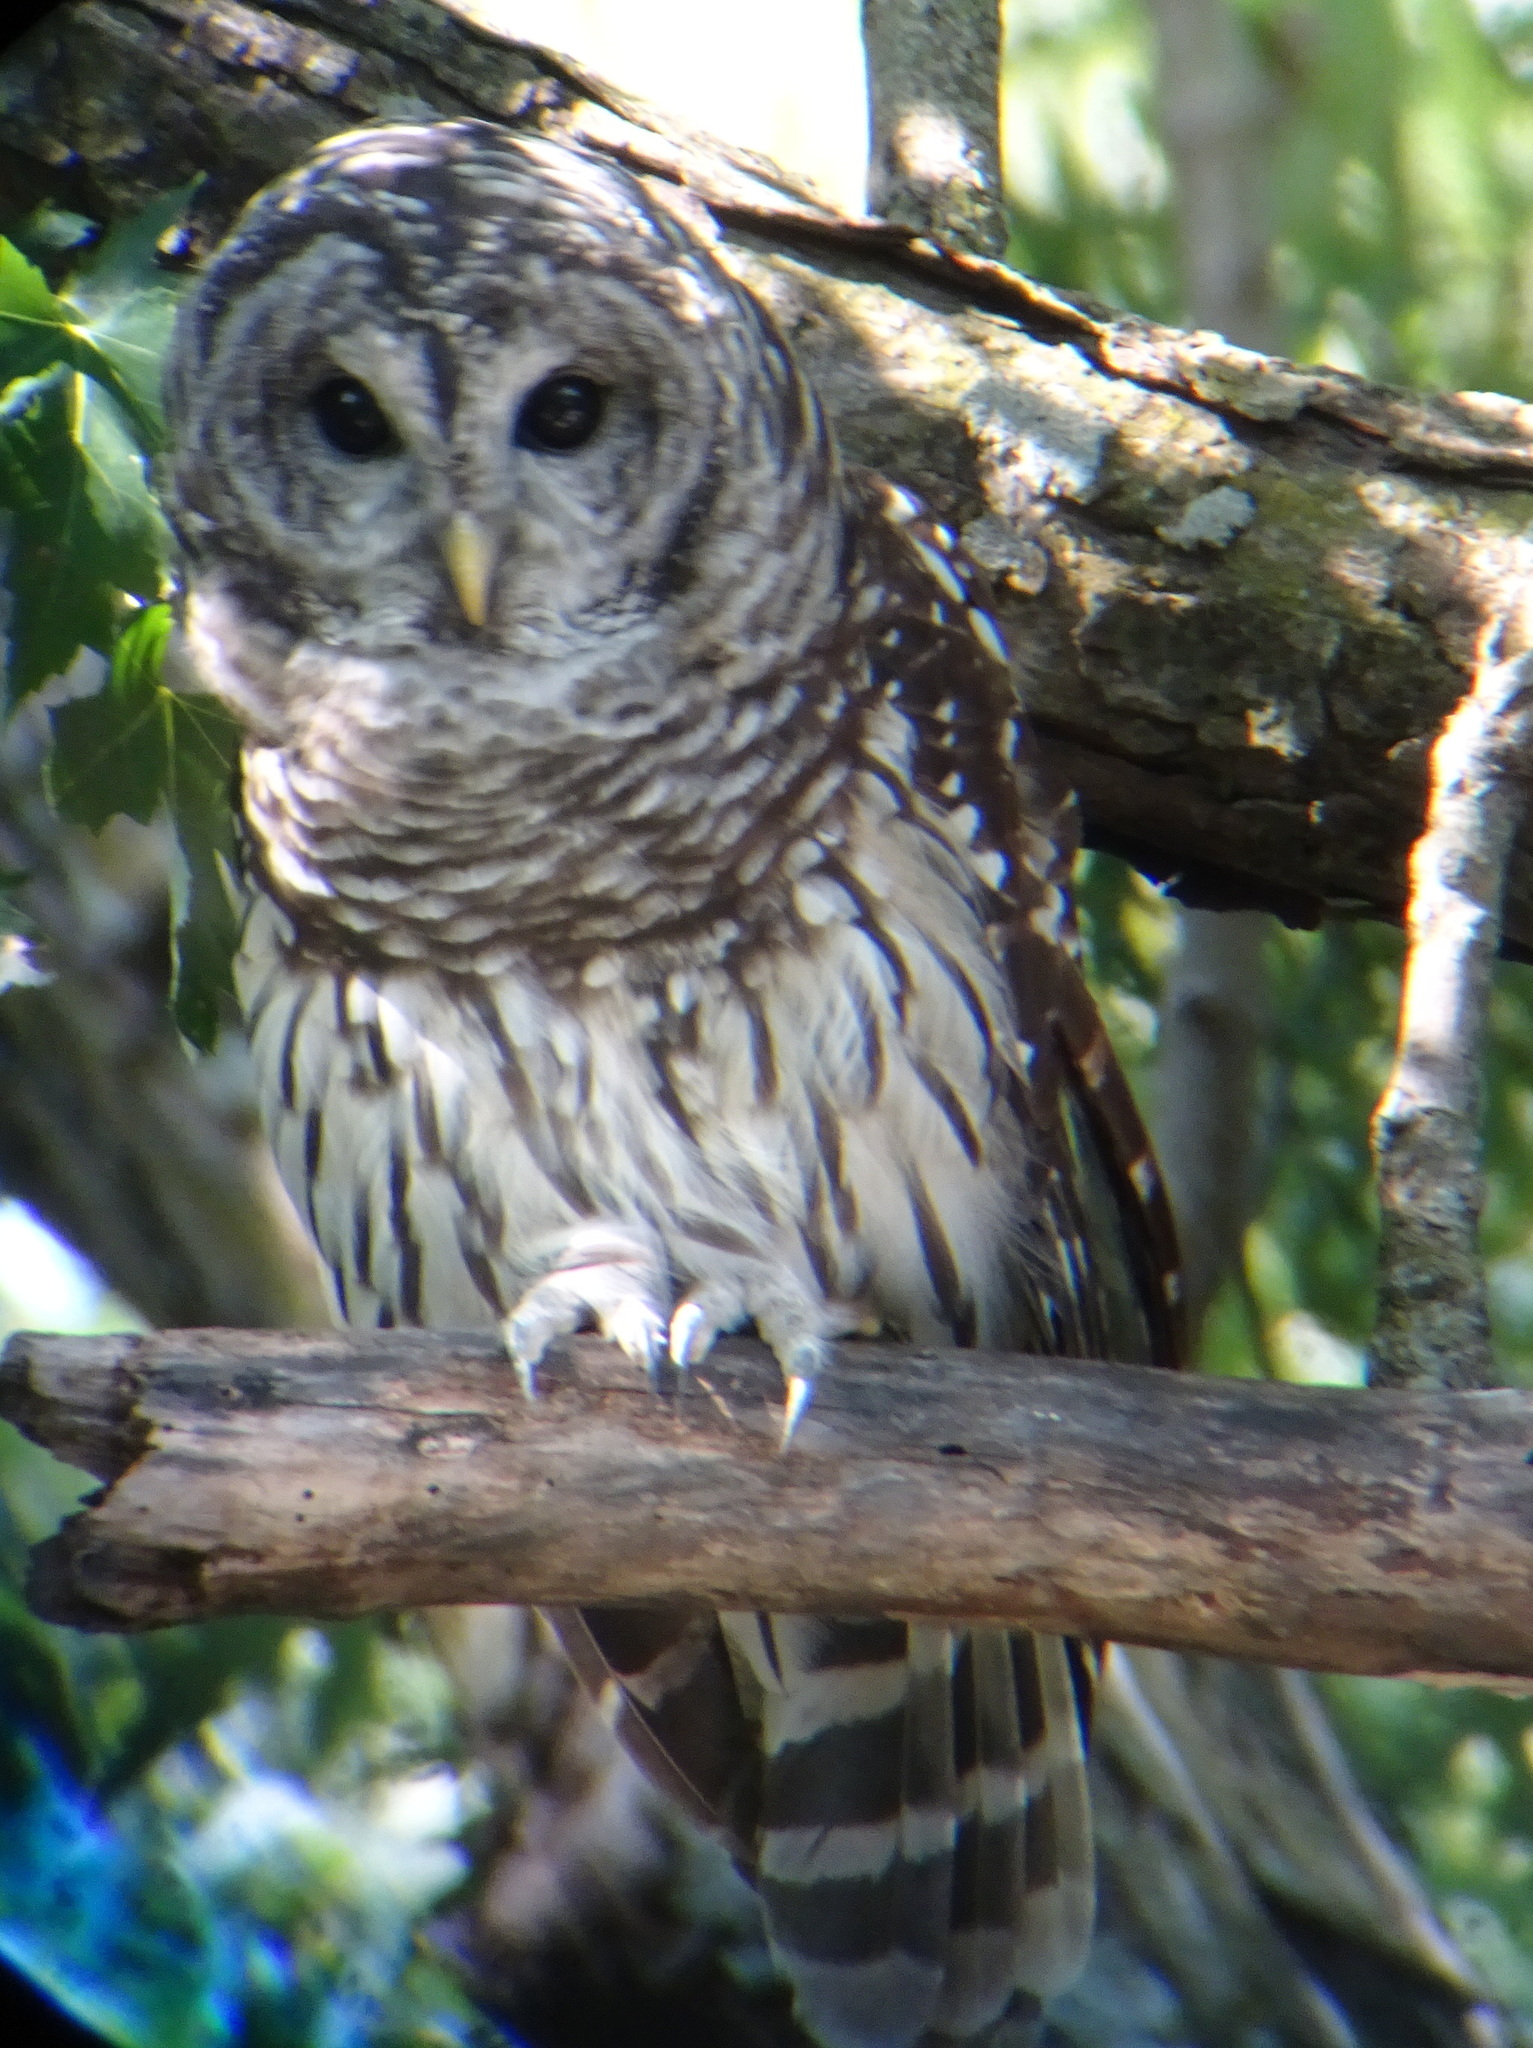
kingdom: Animalia
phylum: Chordata
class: Aves
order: Strigiformes
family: Strigidae
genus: Strix
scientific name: Strix varia
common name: Barred owl
